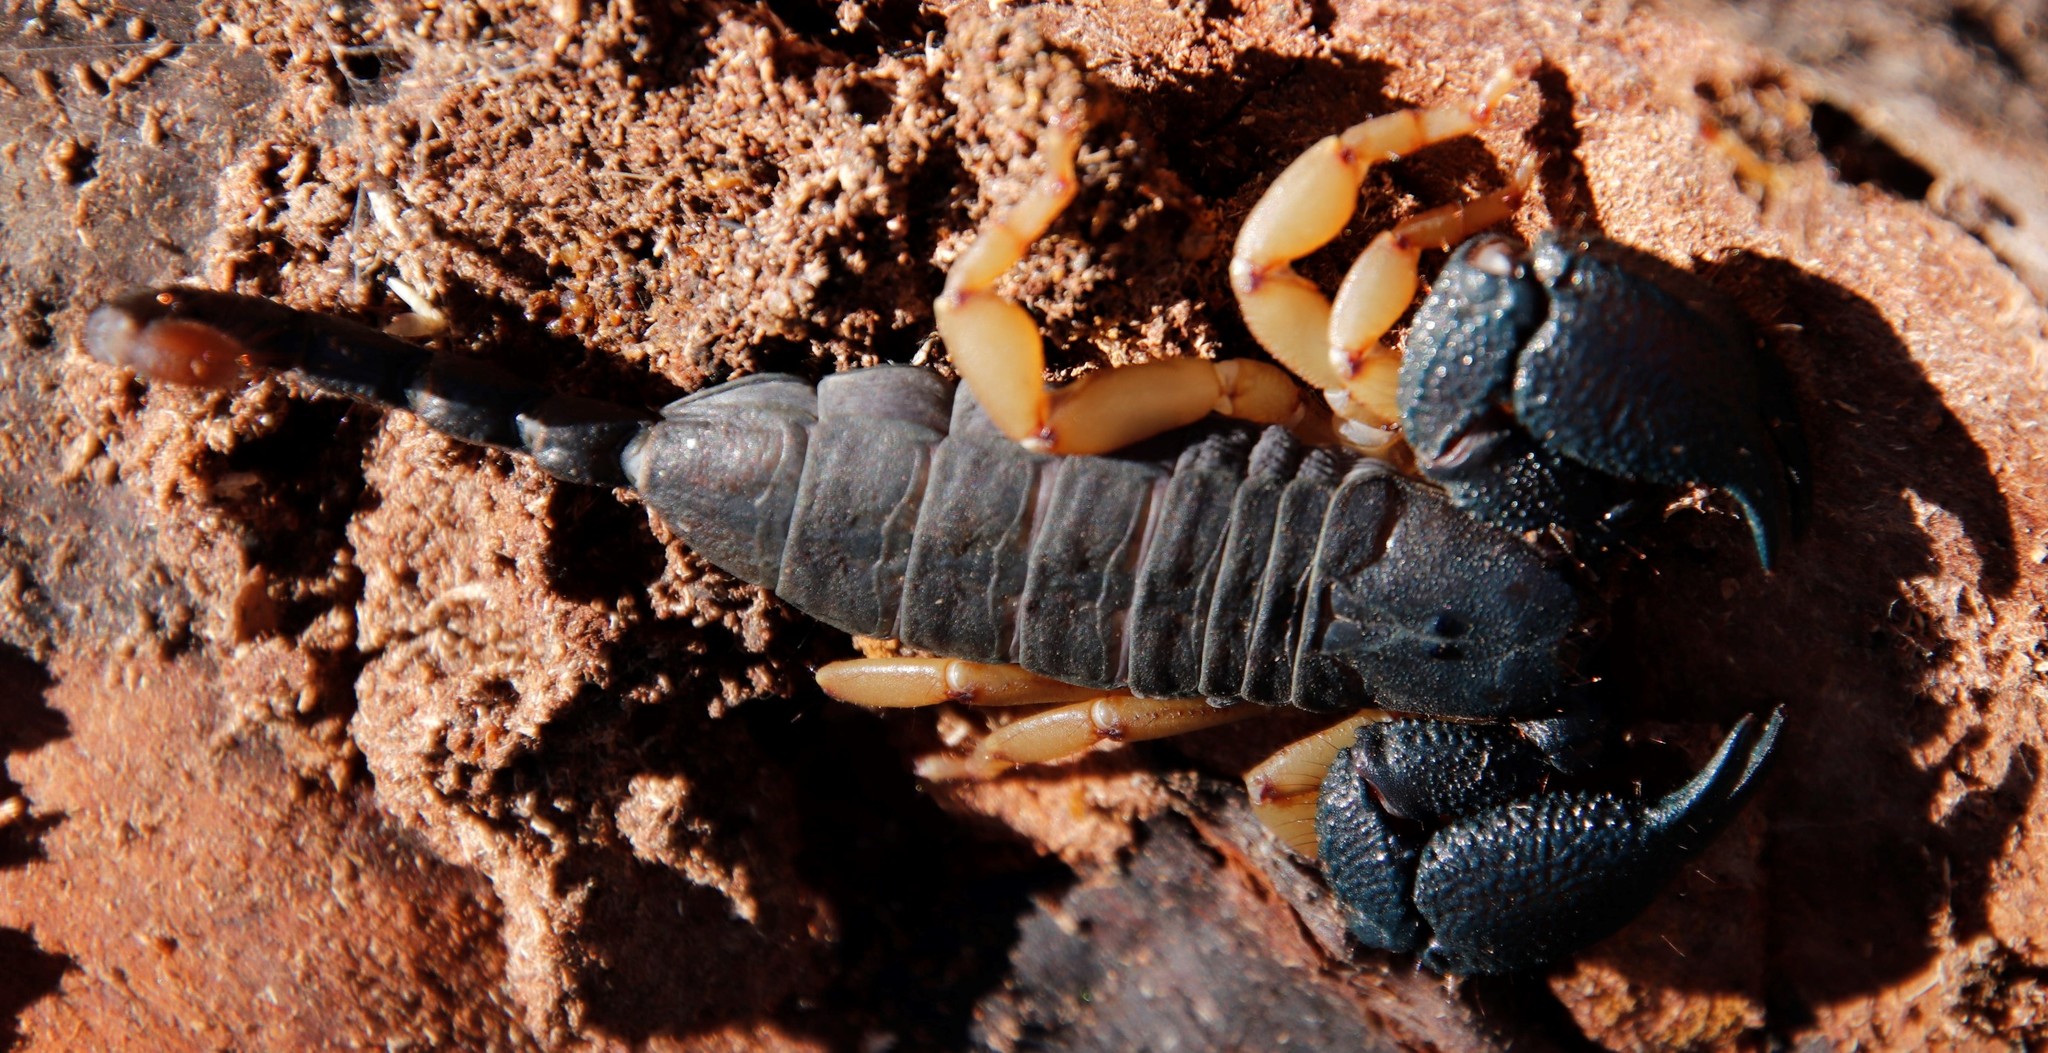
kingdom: Animalia
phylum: Arthropoda
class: Arachnida
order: Scorpiones
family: Hormuridae
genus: Opisthacanthus
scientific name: Opisthacanthus asper
